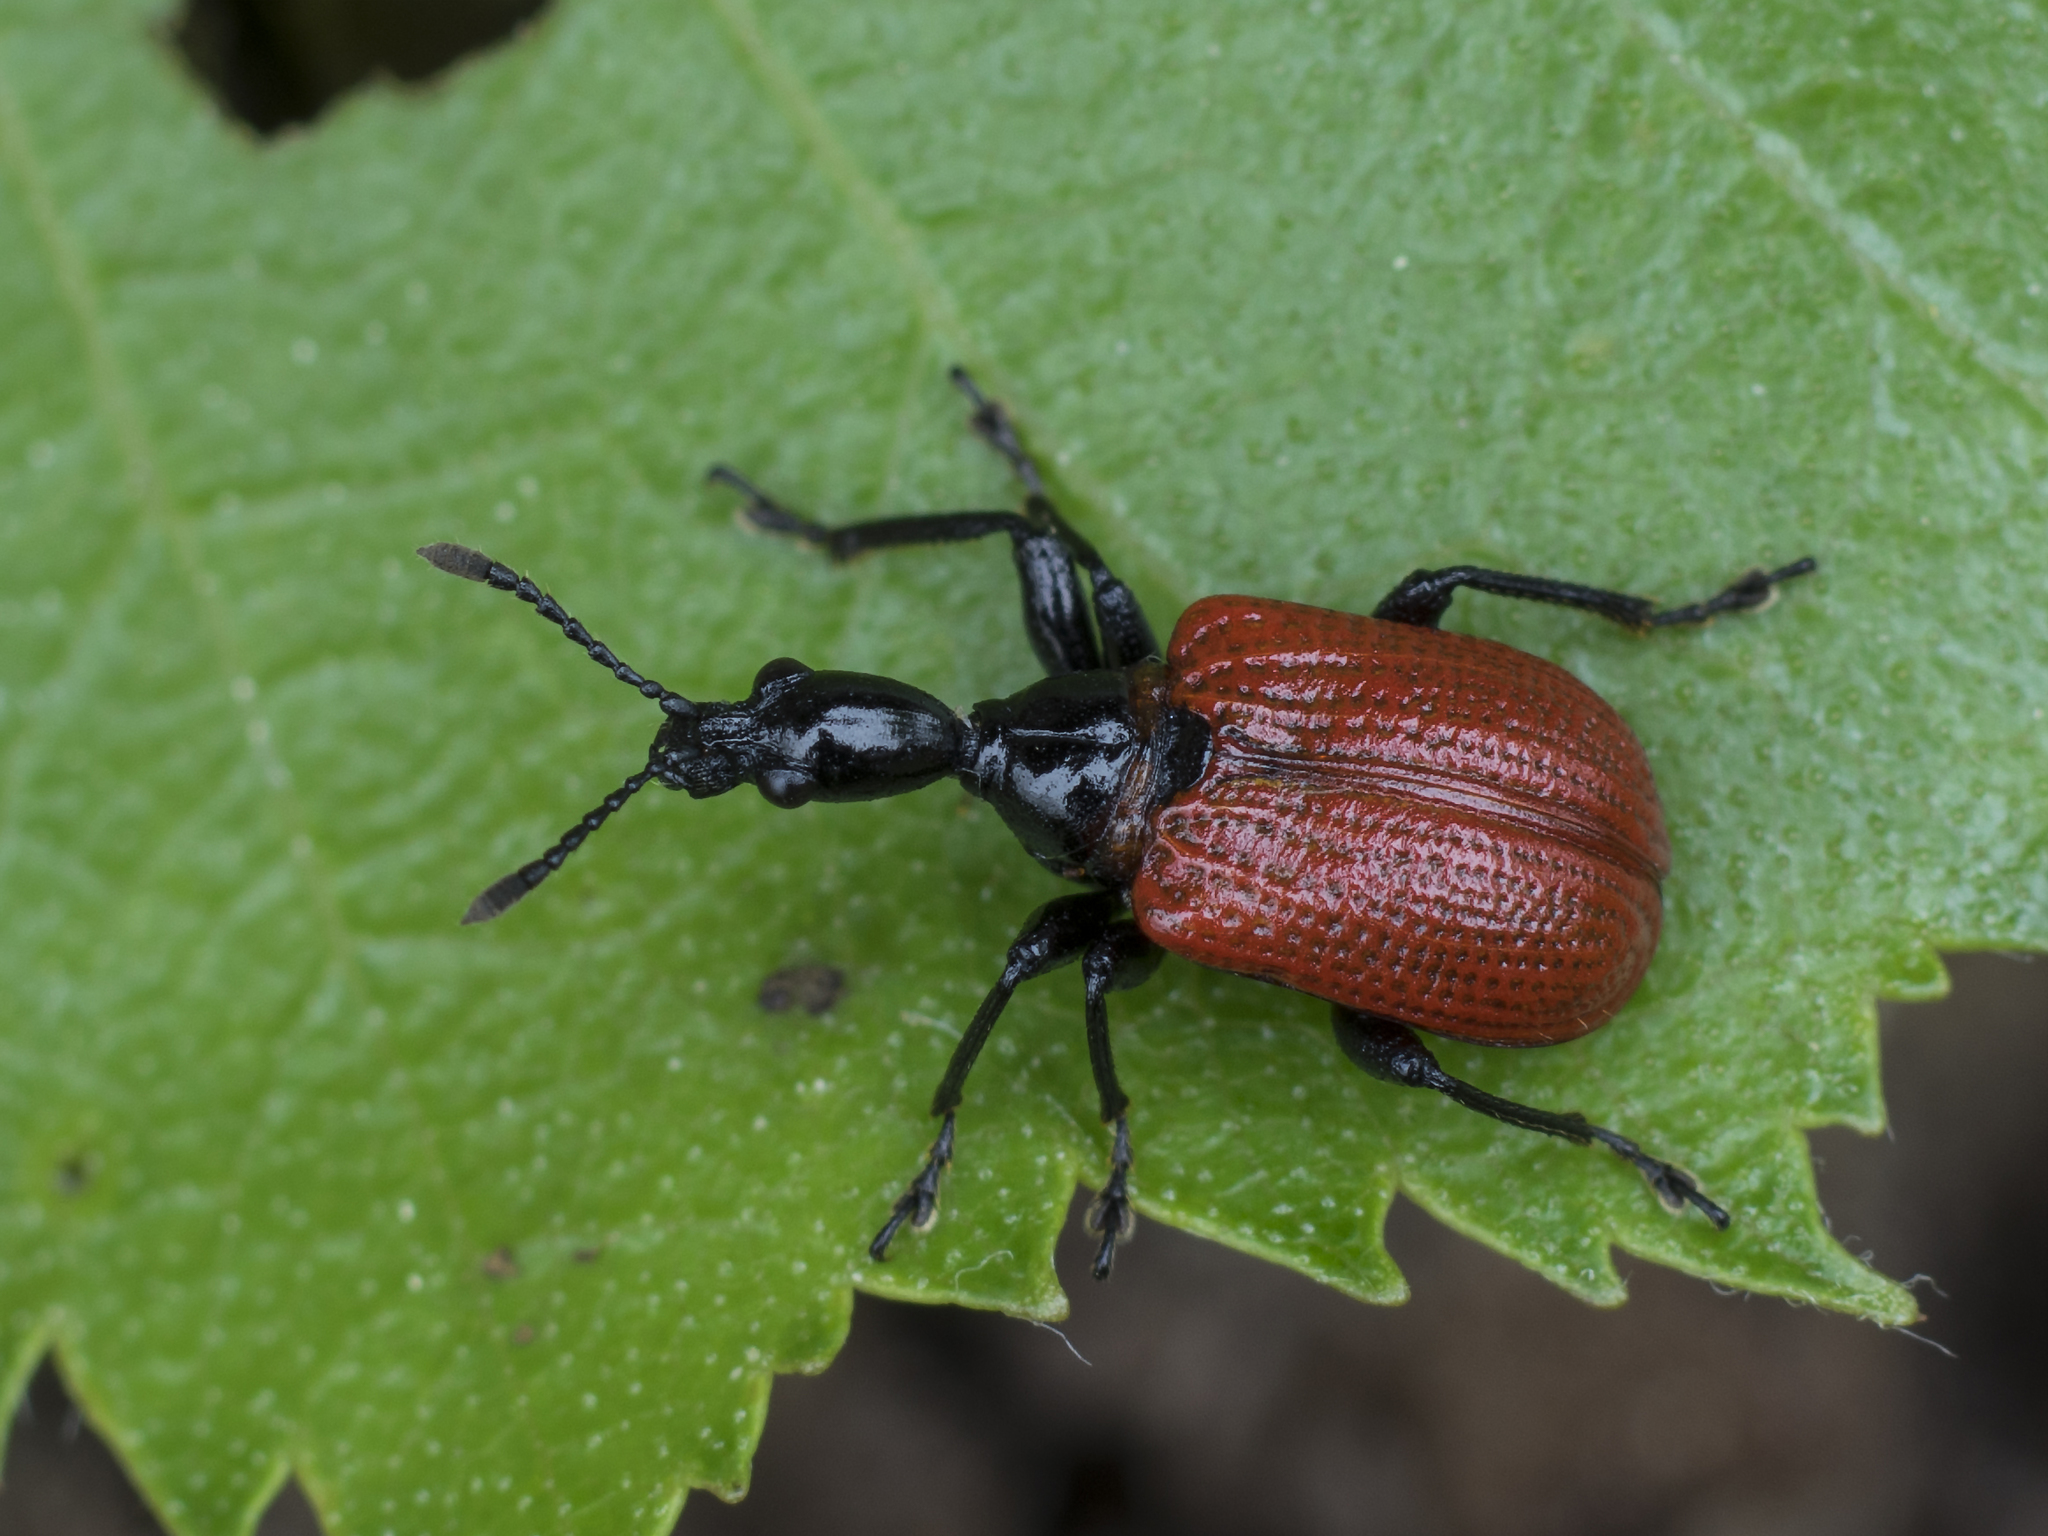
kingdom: Animalia
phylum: Arthropoda
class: Insecta
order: Coleoptera
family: Attelabidae
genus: Apoderus
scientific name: Apoderus coryli
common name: Hazel leaf roller
